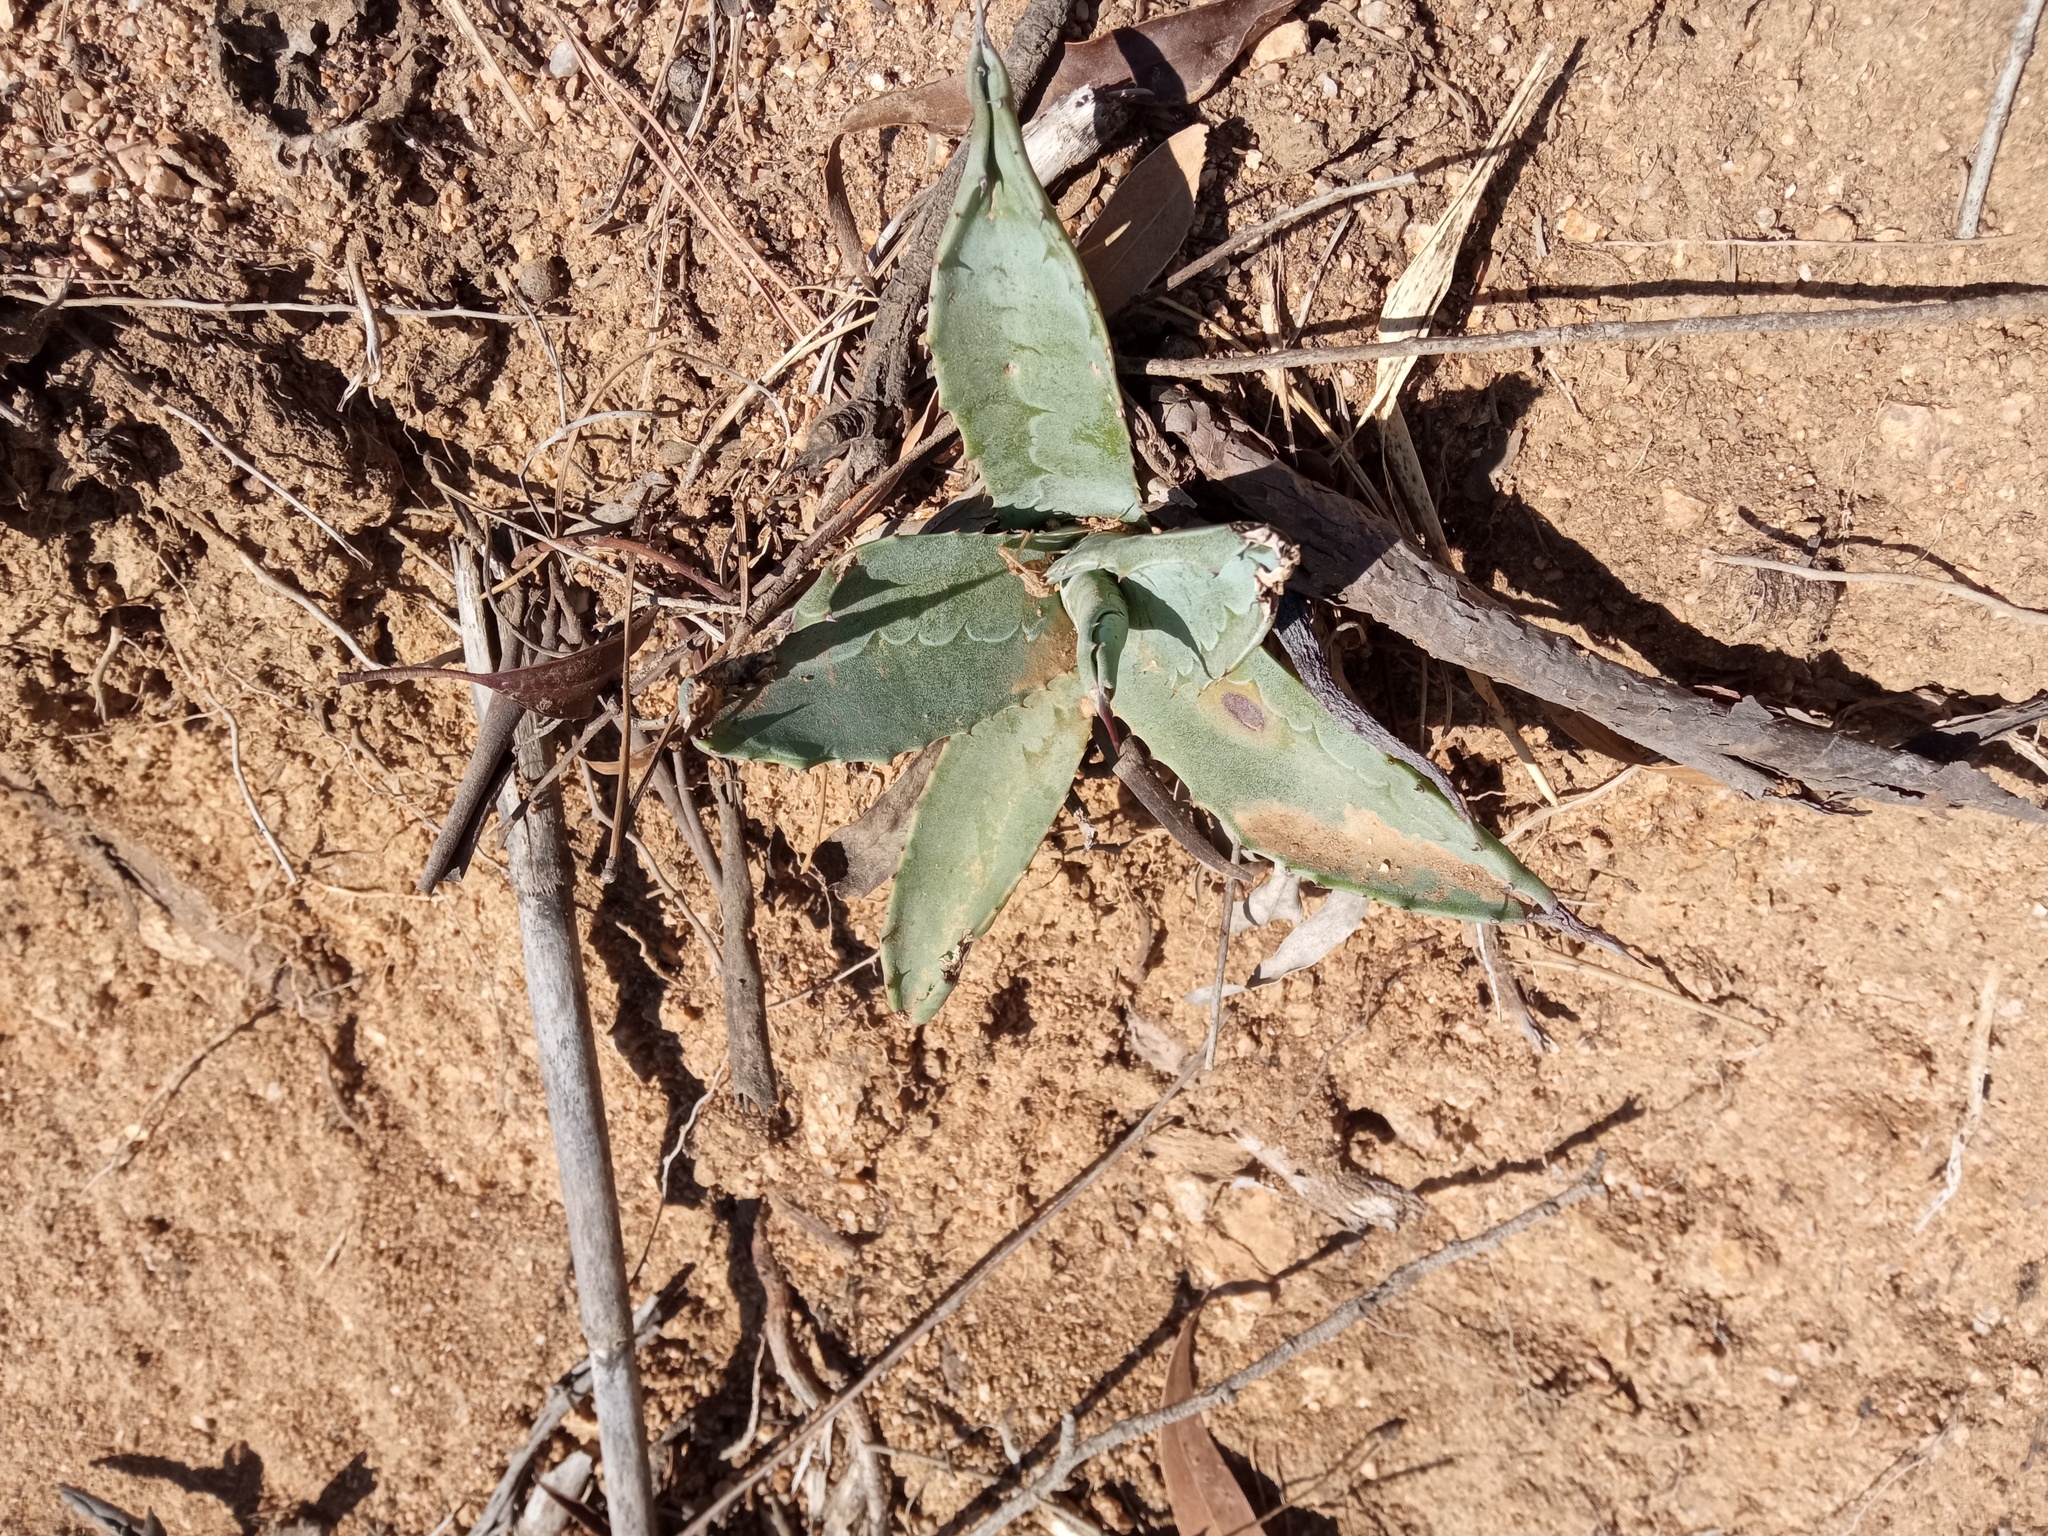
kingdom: Plantae
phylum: Tracheophyta
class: Liliopsida
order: Asparagales
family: Asparagaceae
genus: Agave
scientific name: Agave americana
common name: Centuryplant
